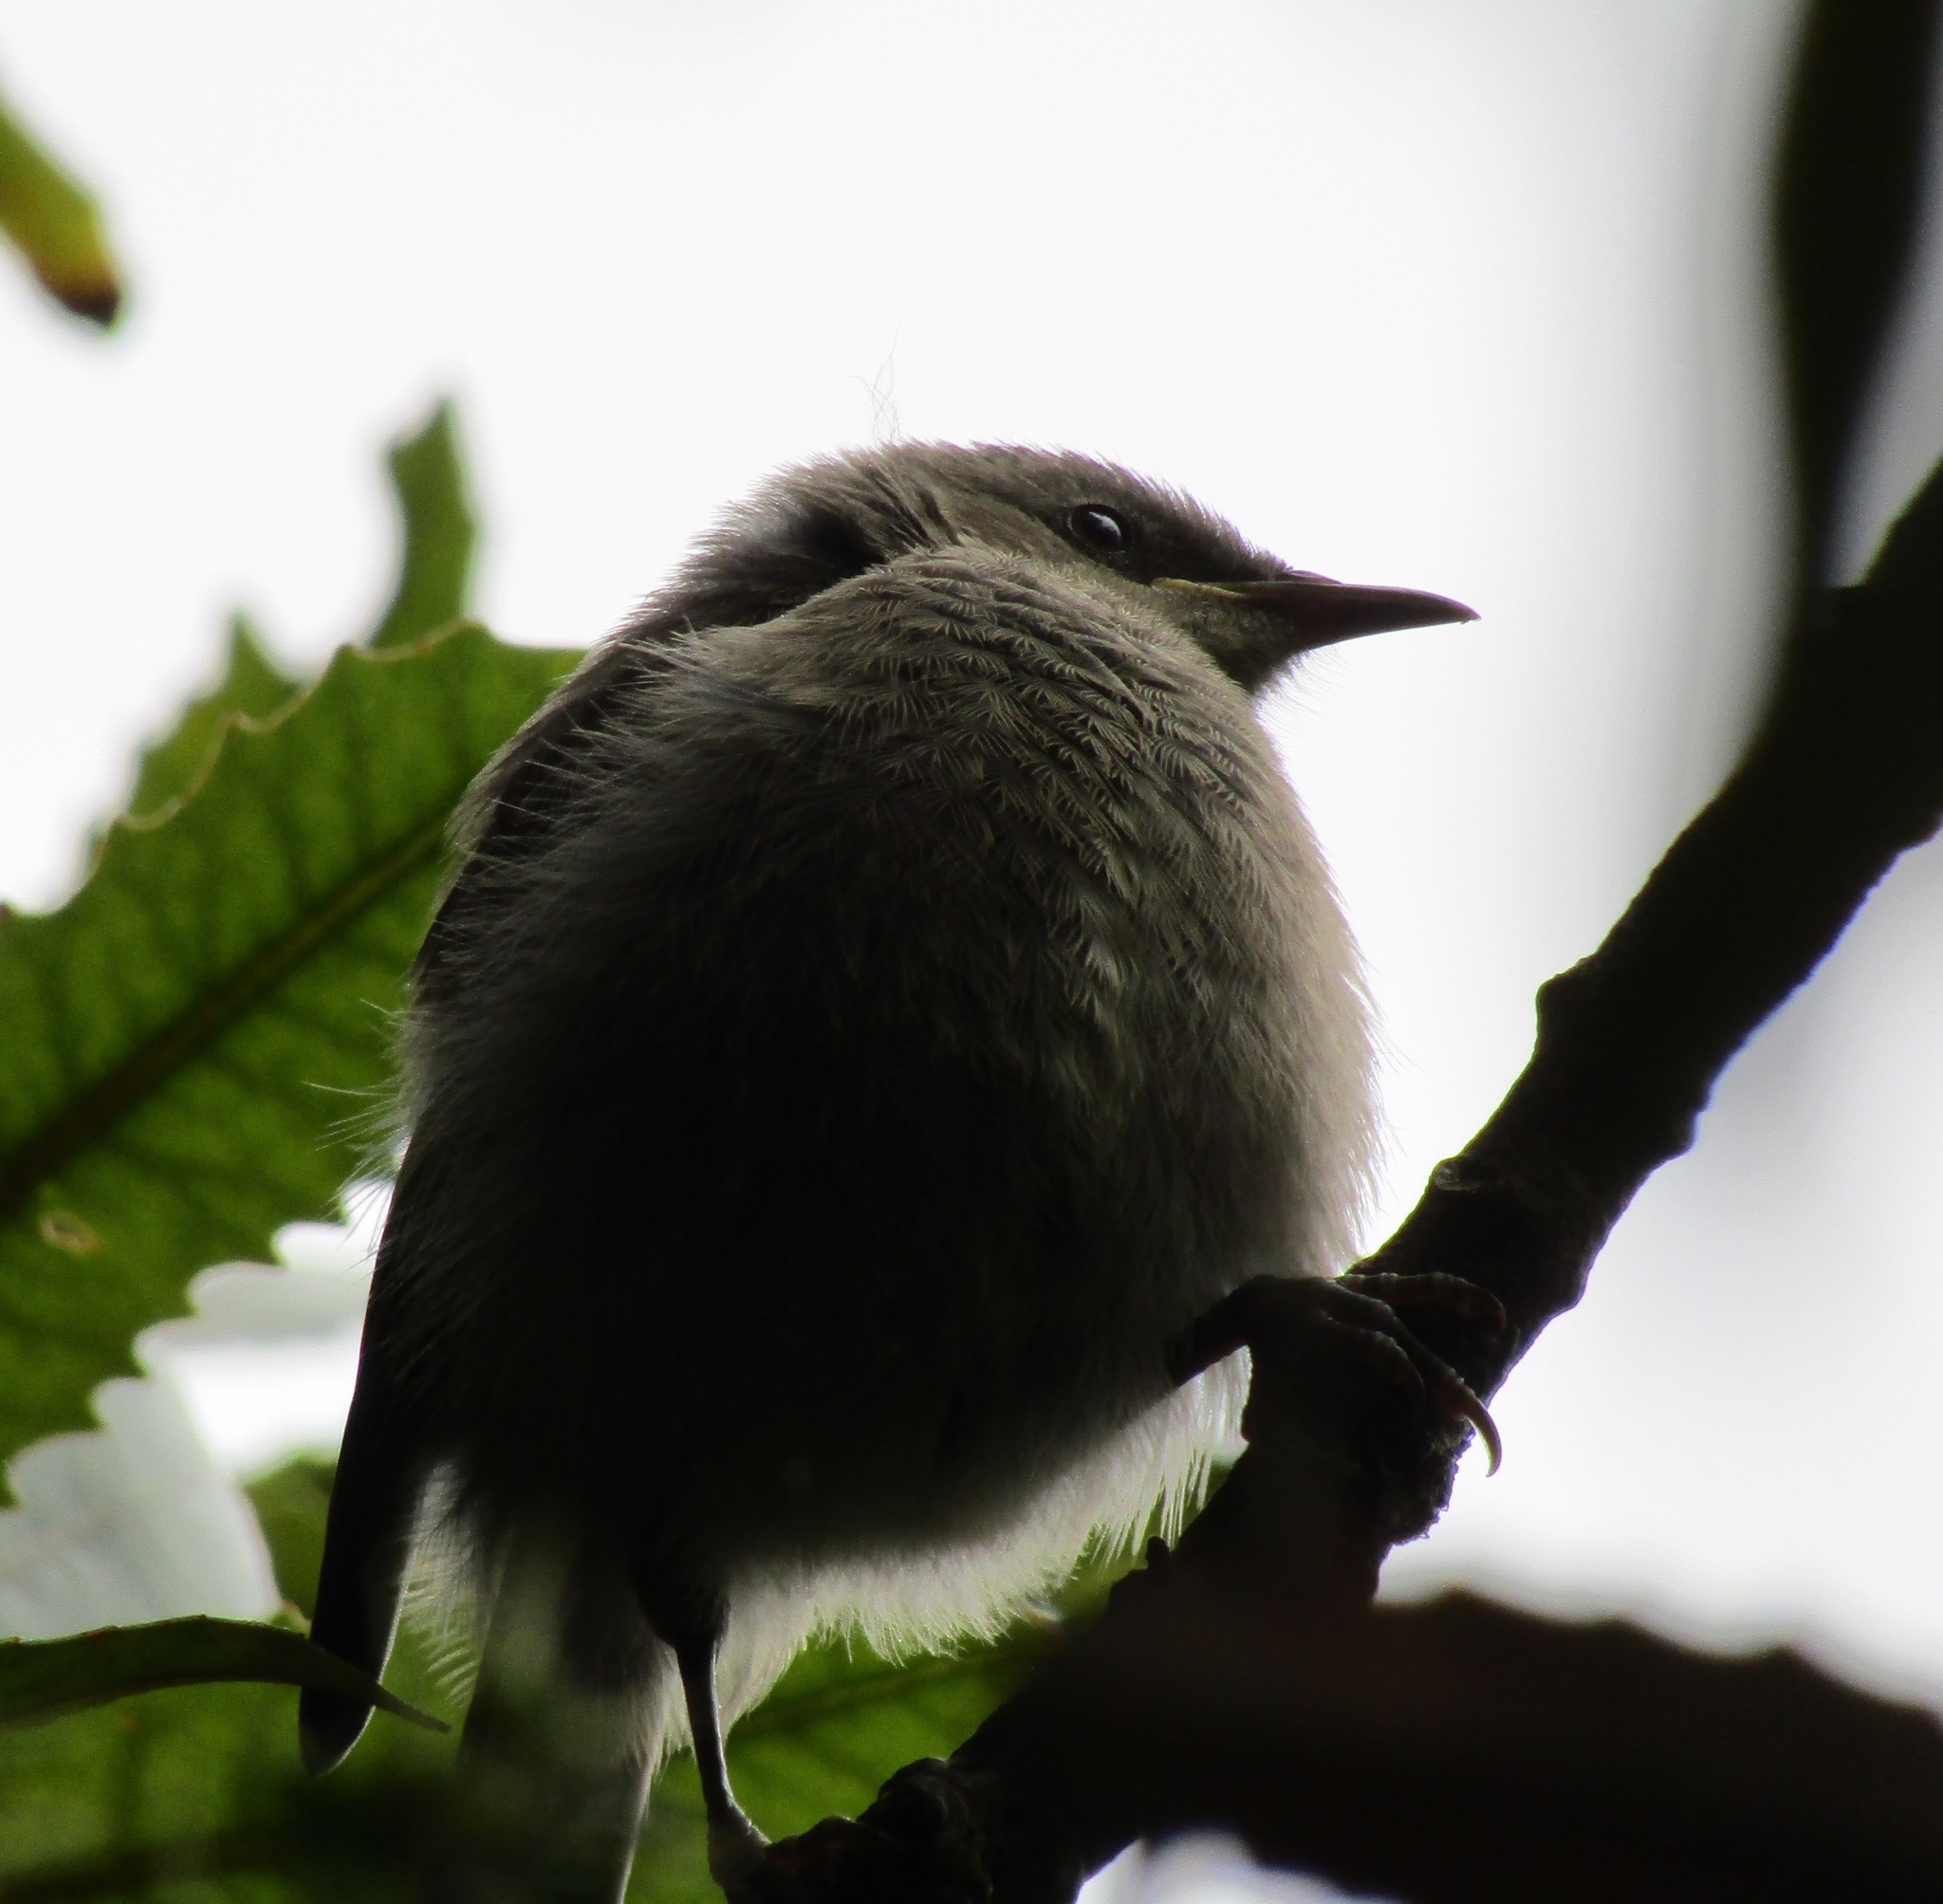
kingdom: Animalia
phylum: Chordata
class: Aves
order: Passeriformes
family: Meliphagidae
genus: Anthornis
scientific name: Anthornis melanura
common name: New zealand bellbird
